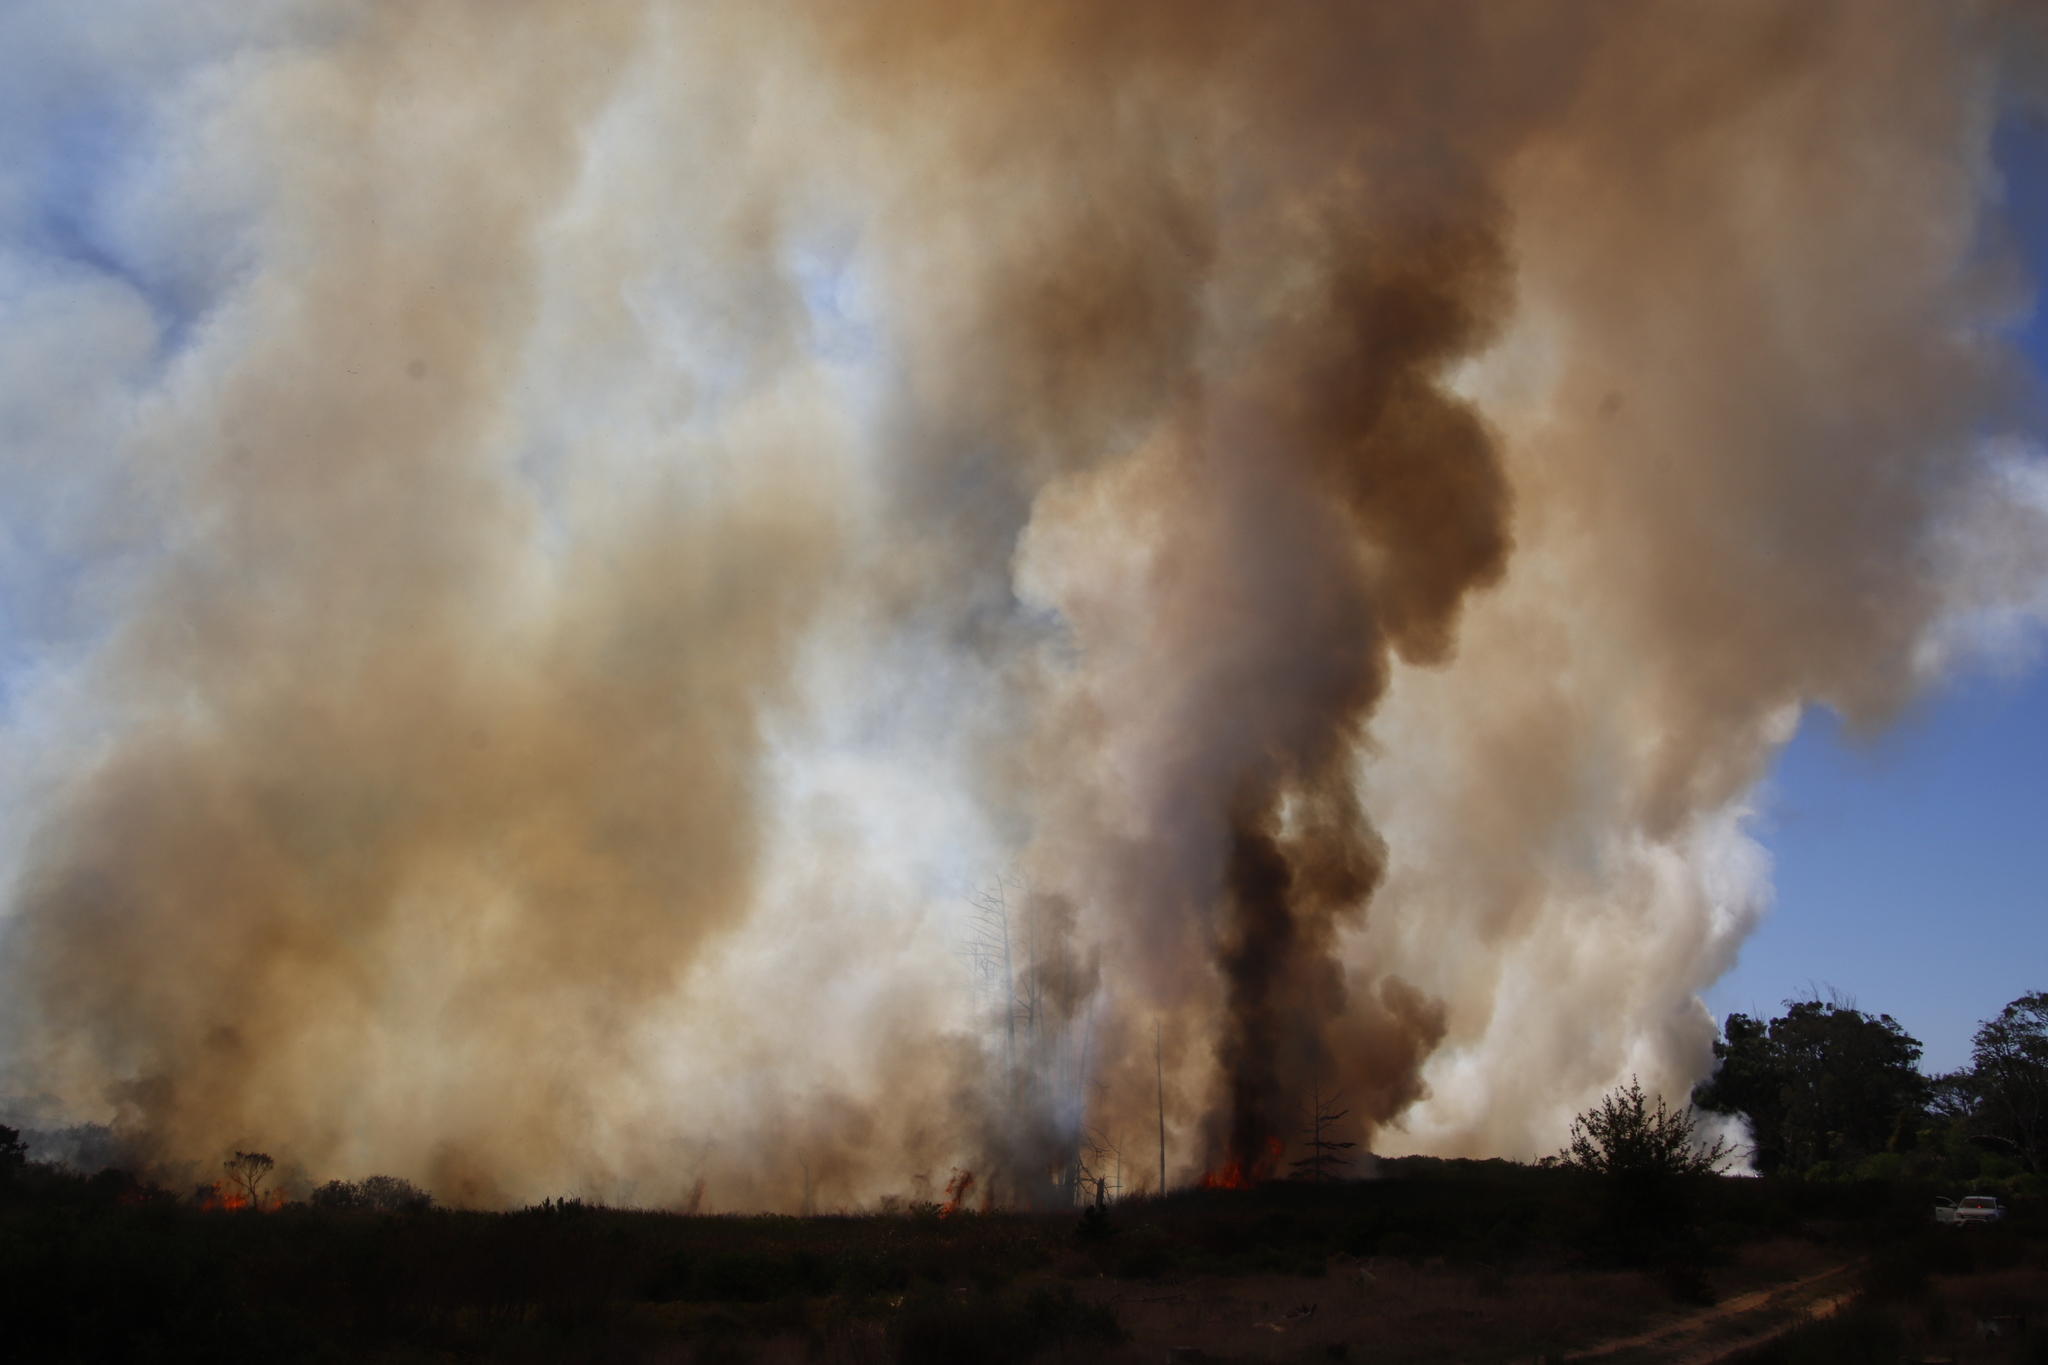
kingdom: Plantae
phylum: Tracheophyta
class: Pinopsida
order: Pinales
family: Cupressaceae
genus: Taxodium
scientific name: Taxodium distichum
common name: Bald cypress
